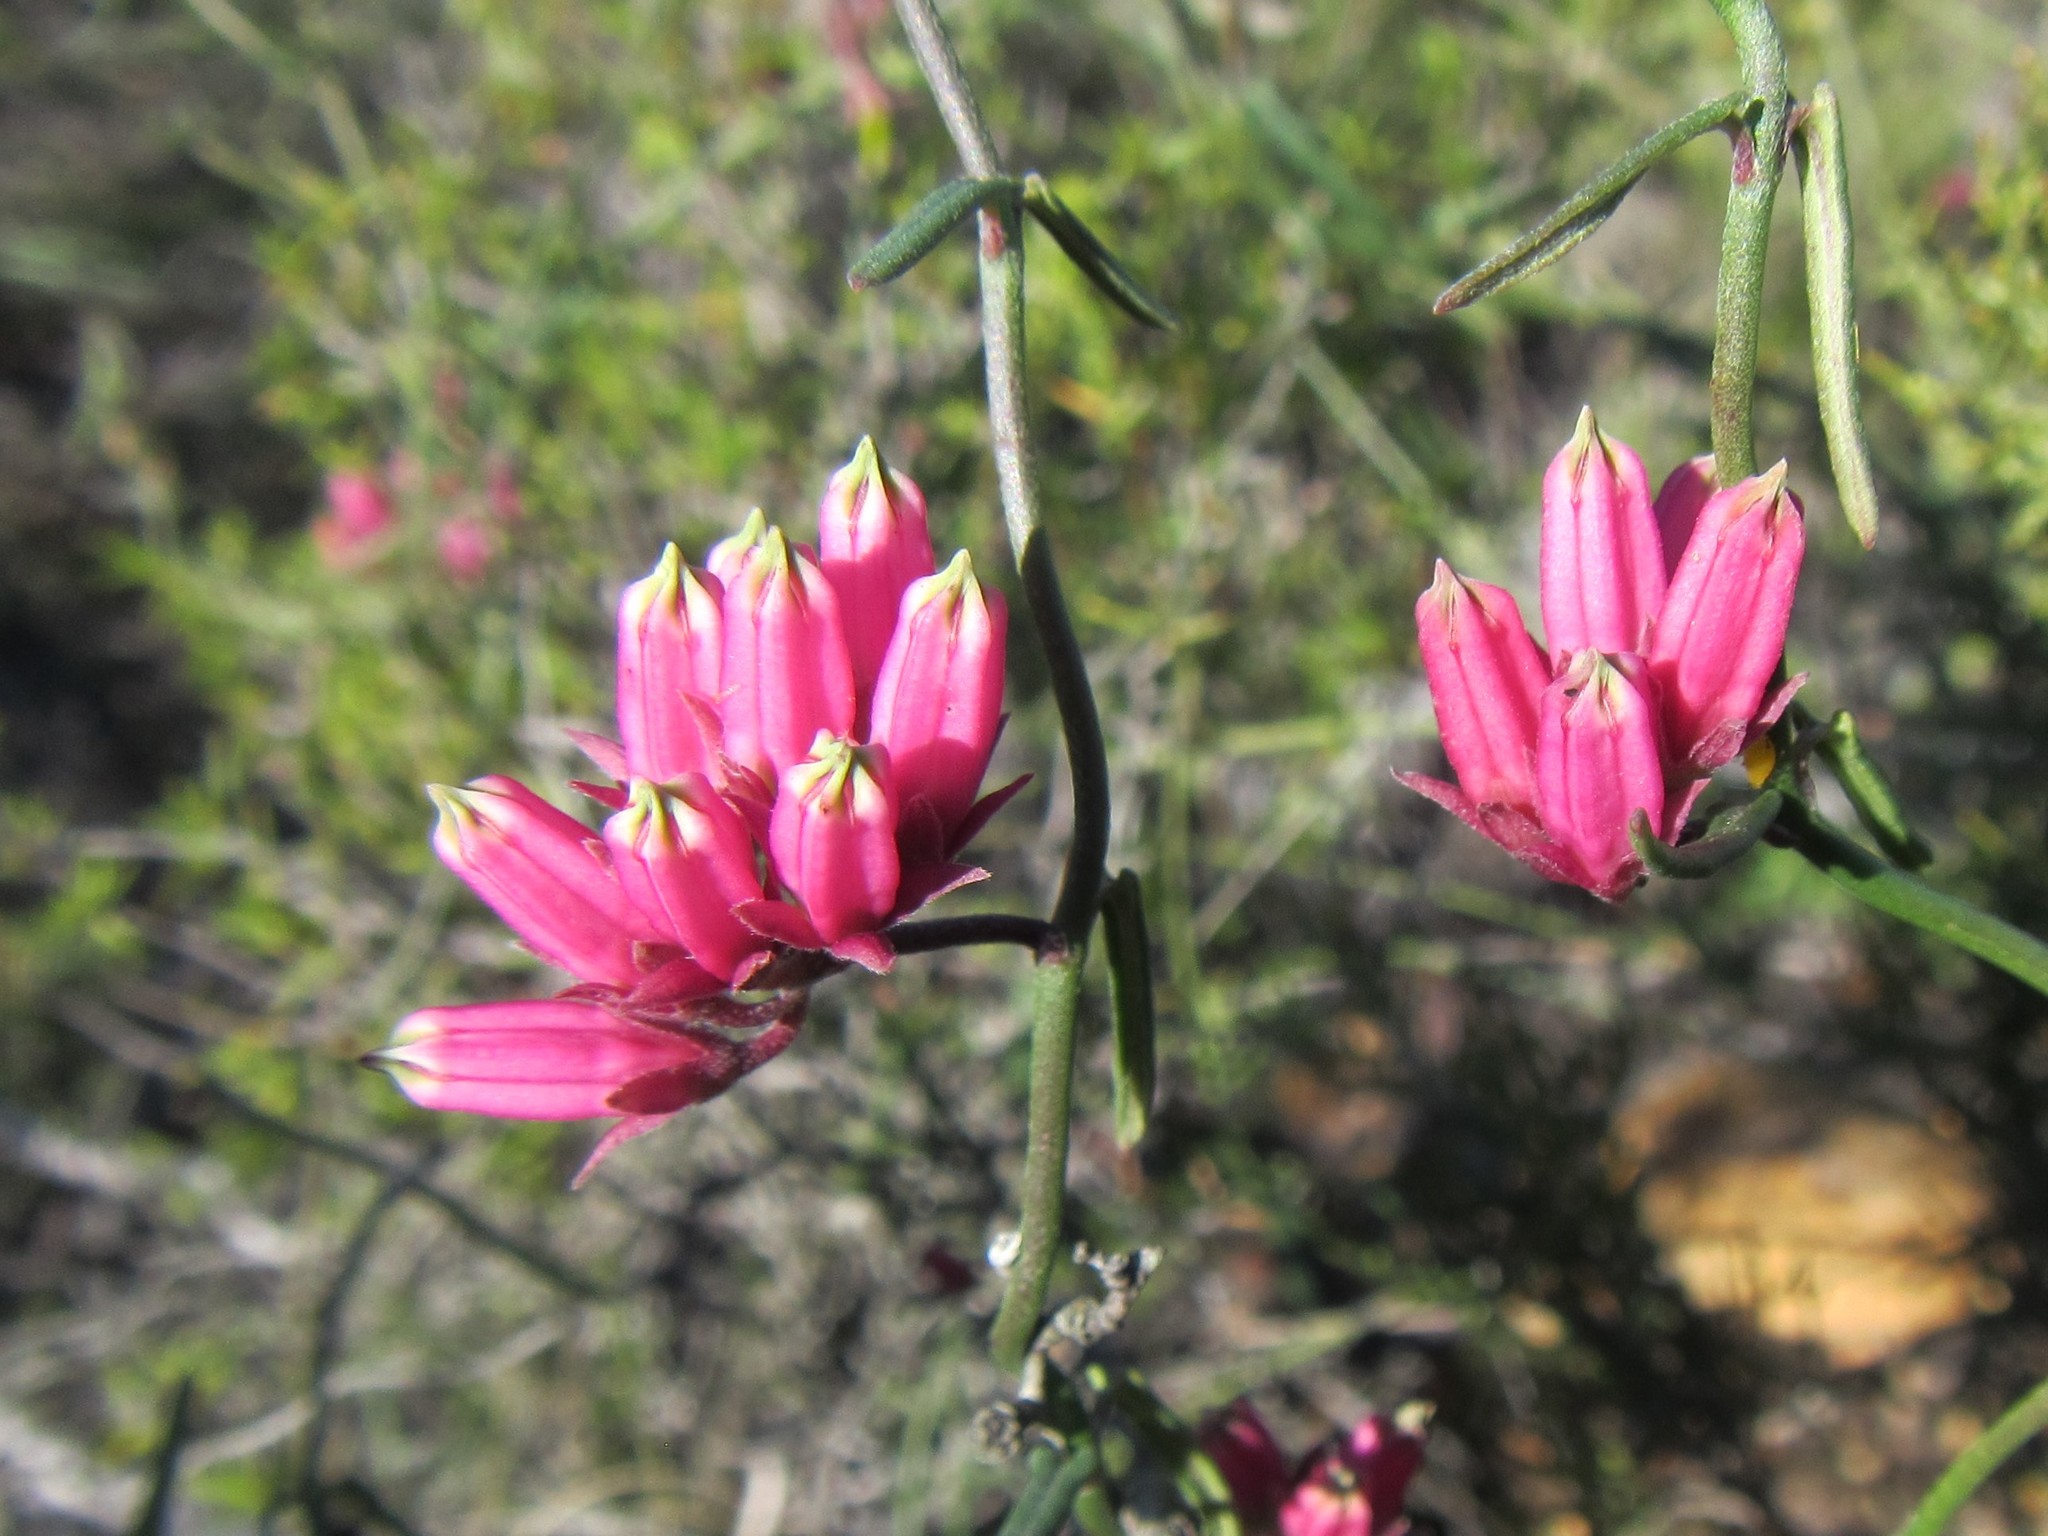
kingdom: Plantae
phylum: Tracheophyta
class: Magnoliopsida
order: Gentianales
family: Apocynaceae
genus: Microloma
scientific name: Microloma sagittatum
